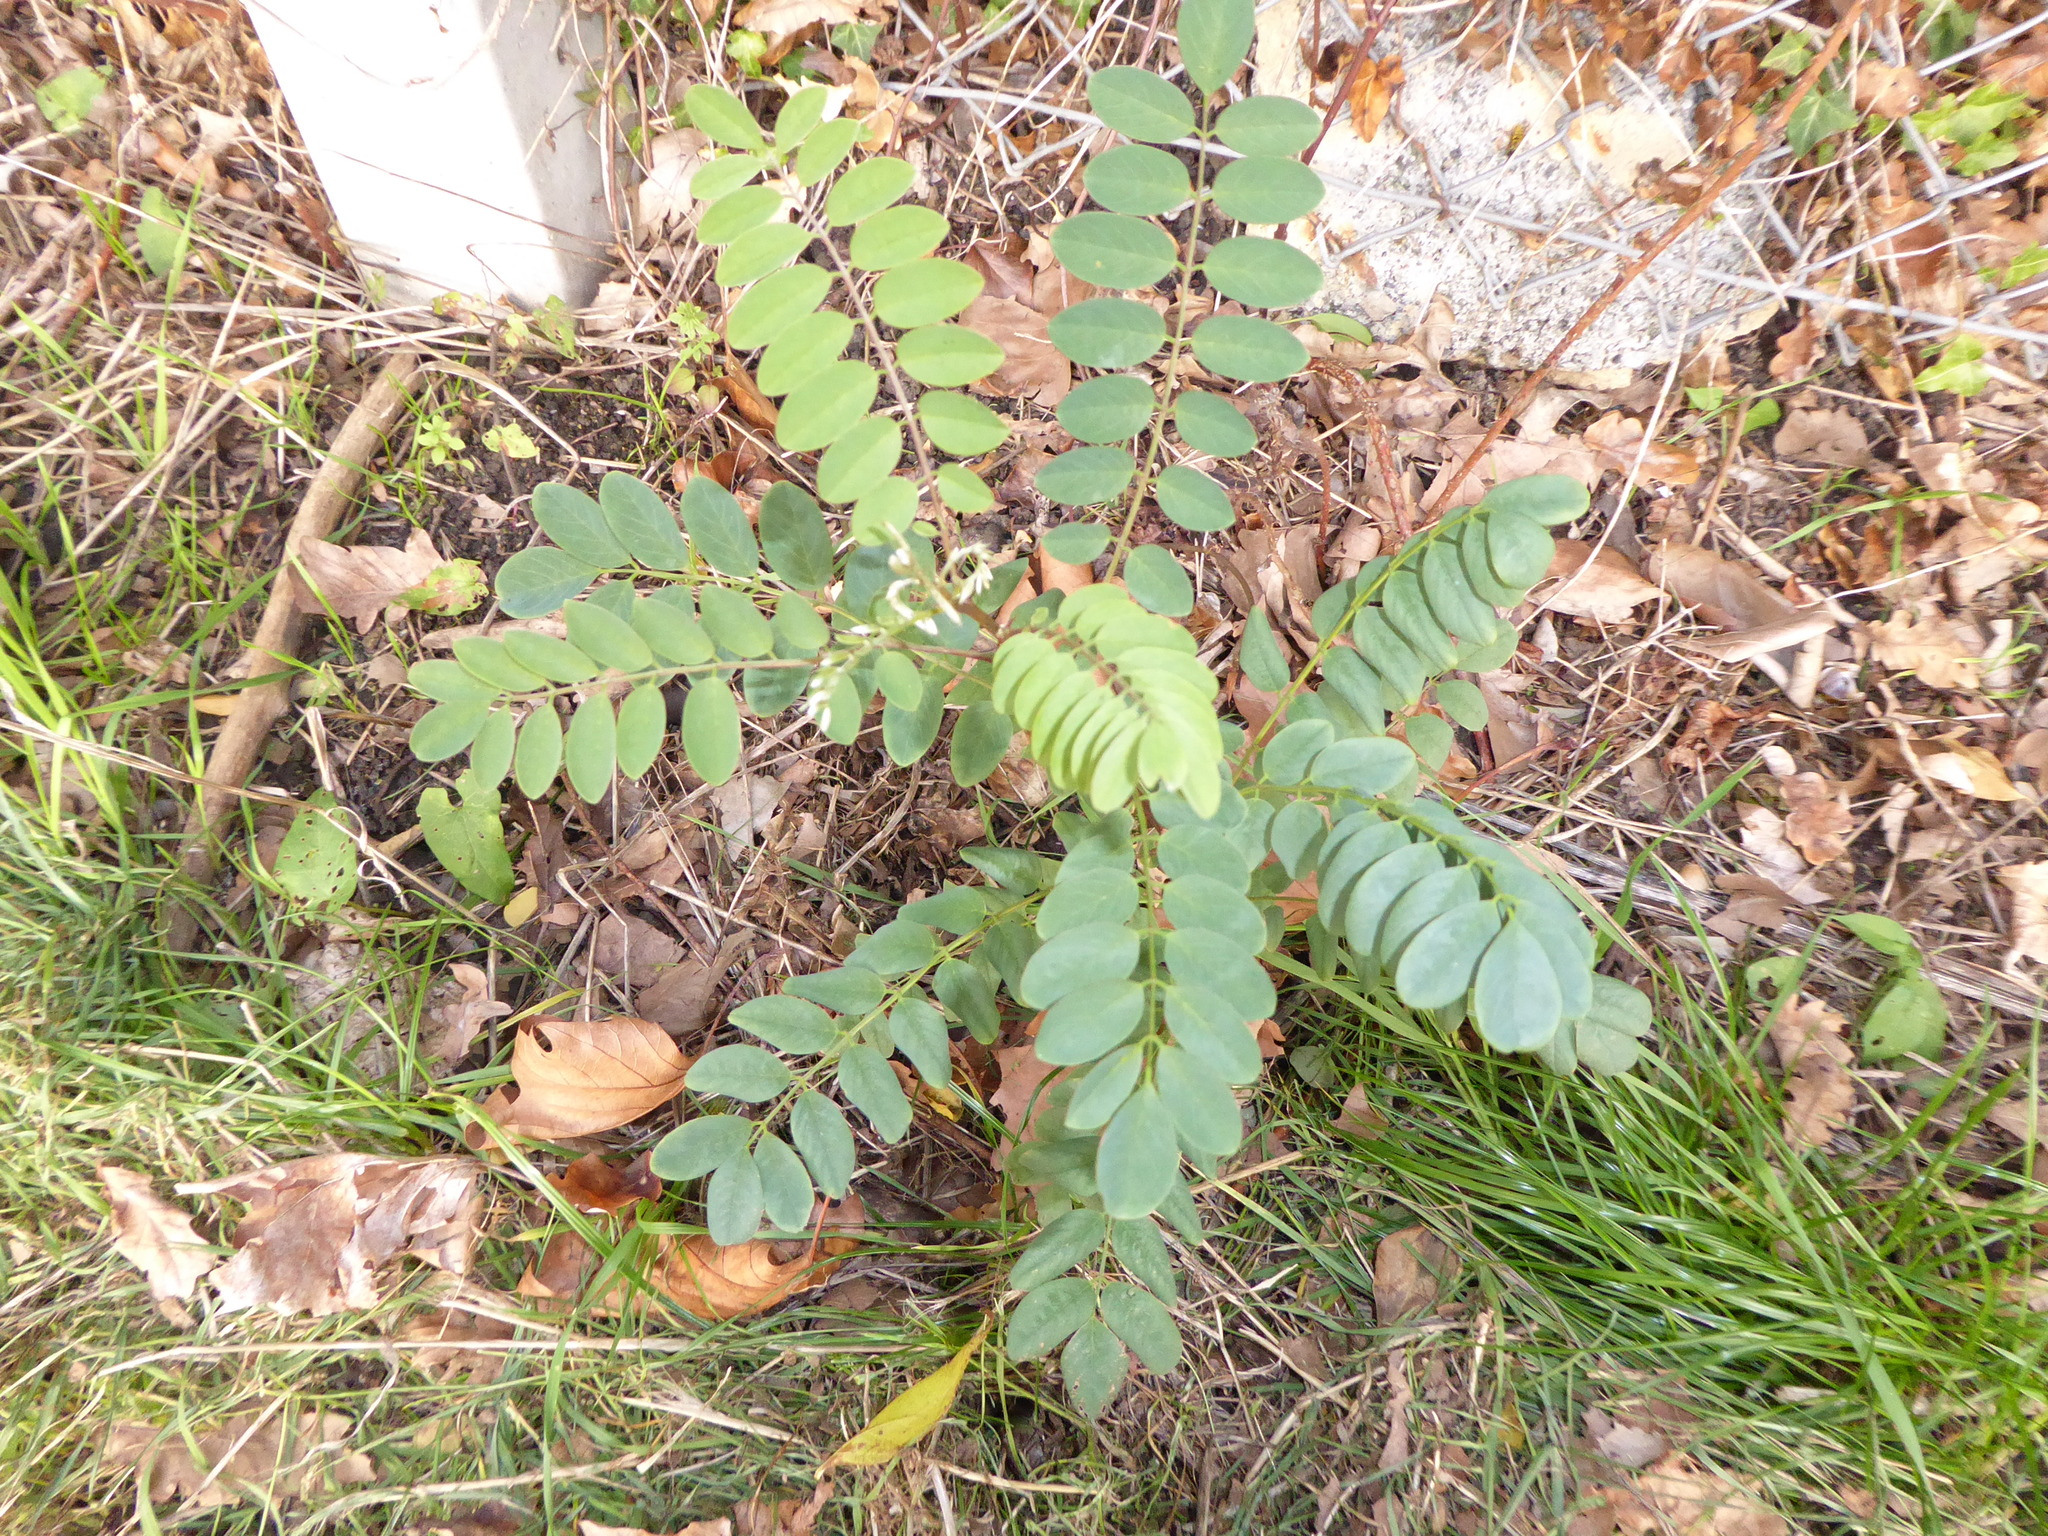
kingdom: Plantae
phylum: Tracheophyta
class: Magnoliopsida
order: Fabales
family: Fabaceae
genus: Robinia
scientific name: Robinia pseudoacacia
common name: Black locust
